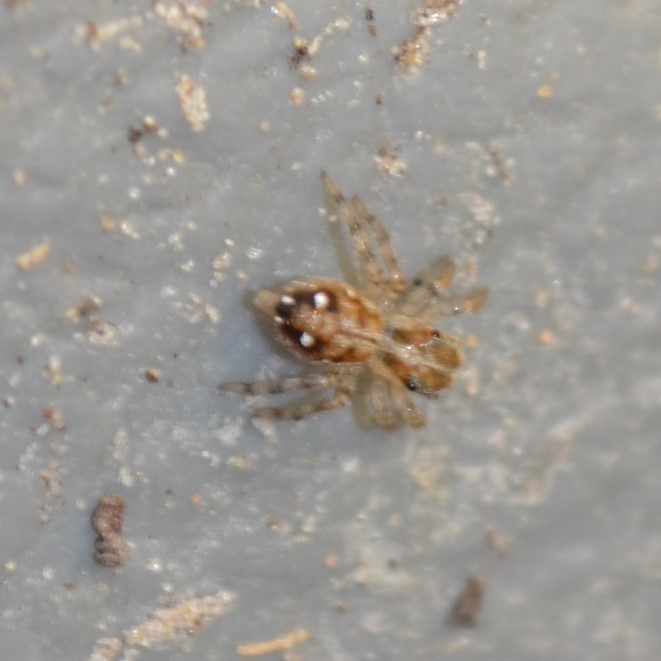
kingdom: Animalia
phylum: Arthropoda
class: Arachnida
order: Araneae
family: Salticidae
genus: Plexippus
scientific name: Plexippus paykulli
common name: Pantropical jumper
